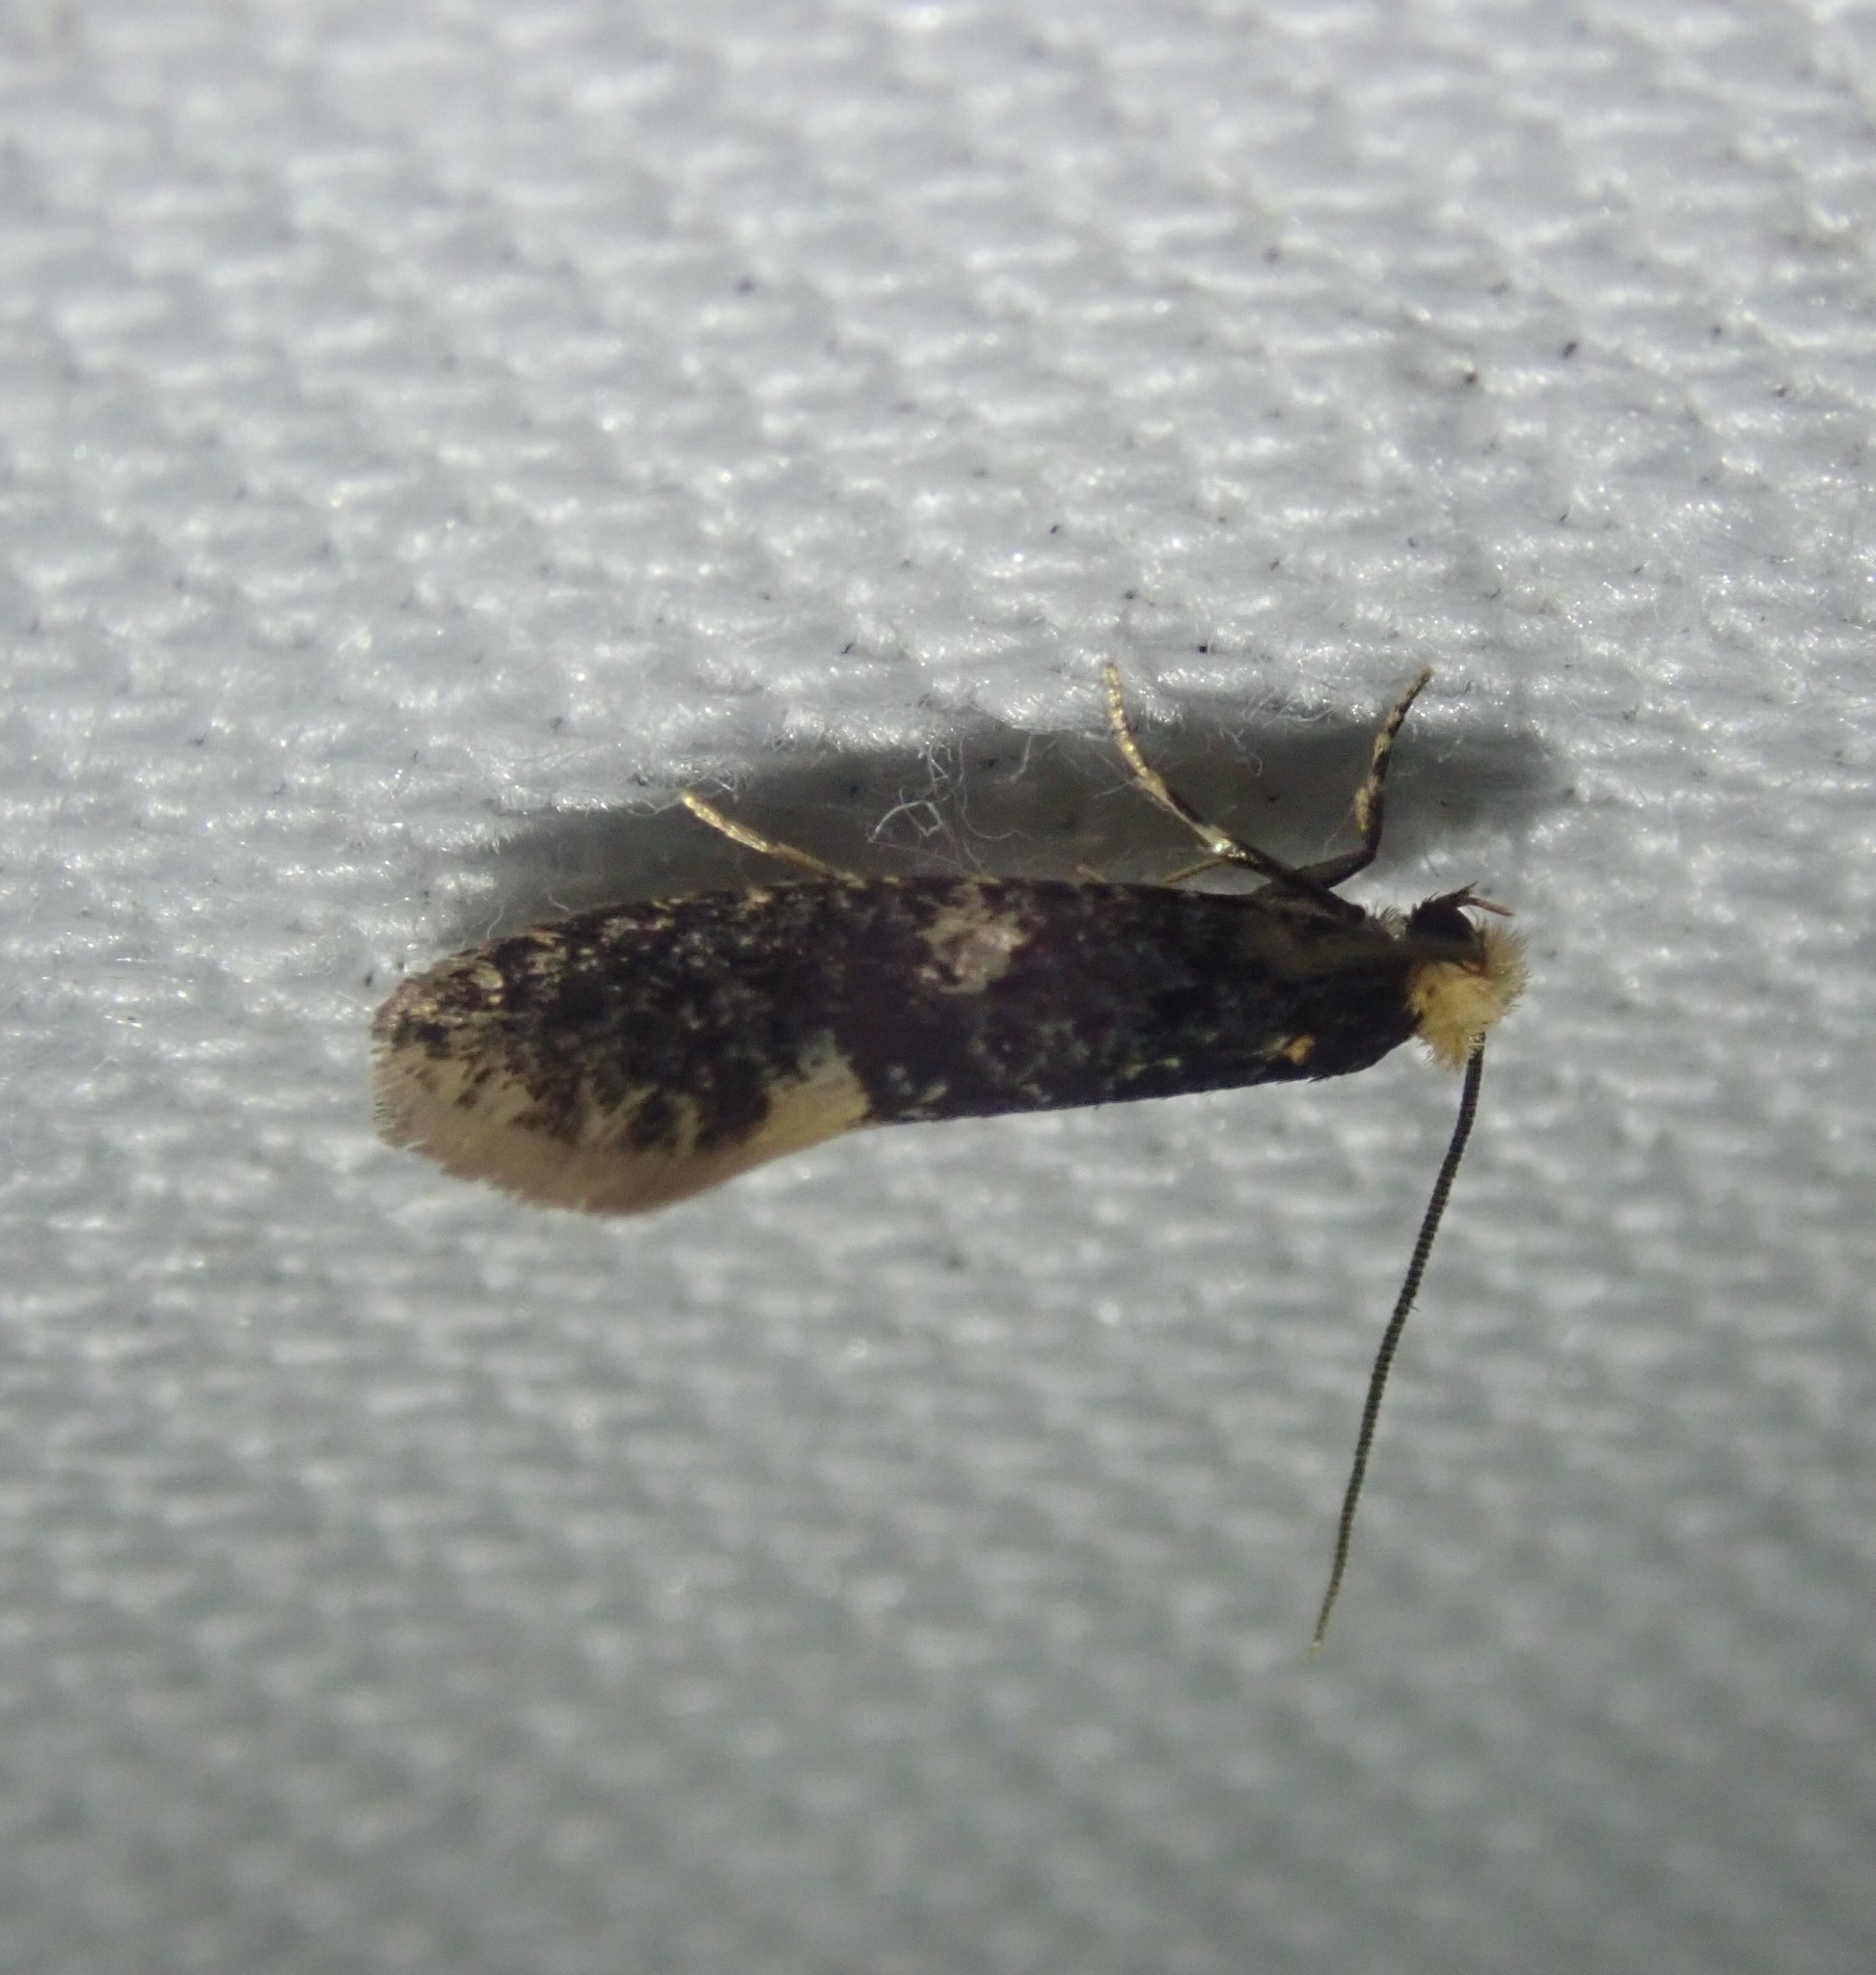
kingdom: Animalia
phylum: Arthropoda
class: Insecta
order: Lepidoptera
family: Tineidae
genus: Monopis
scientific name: Monopis weaverella
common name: Carrion moth
